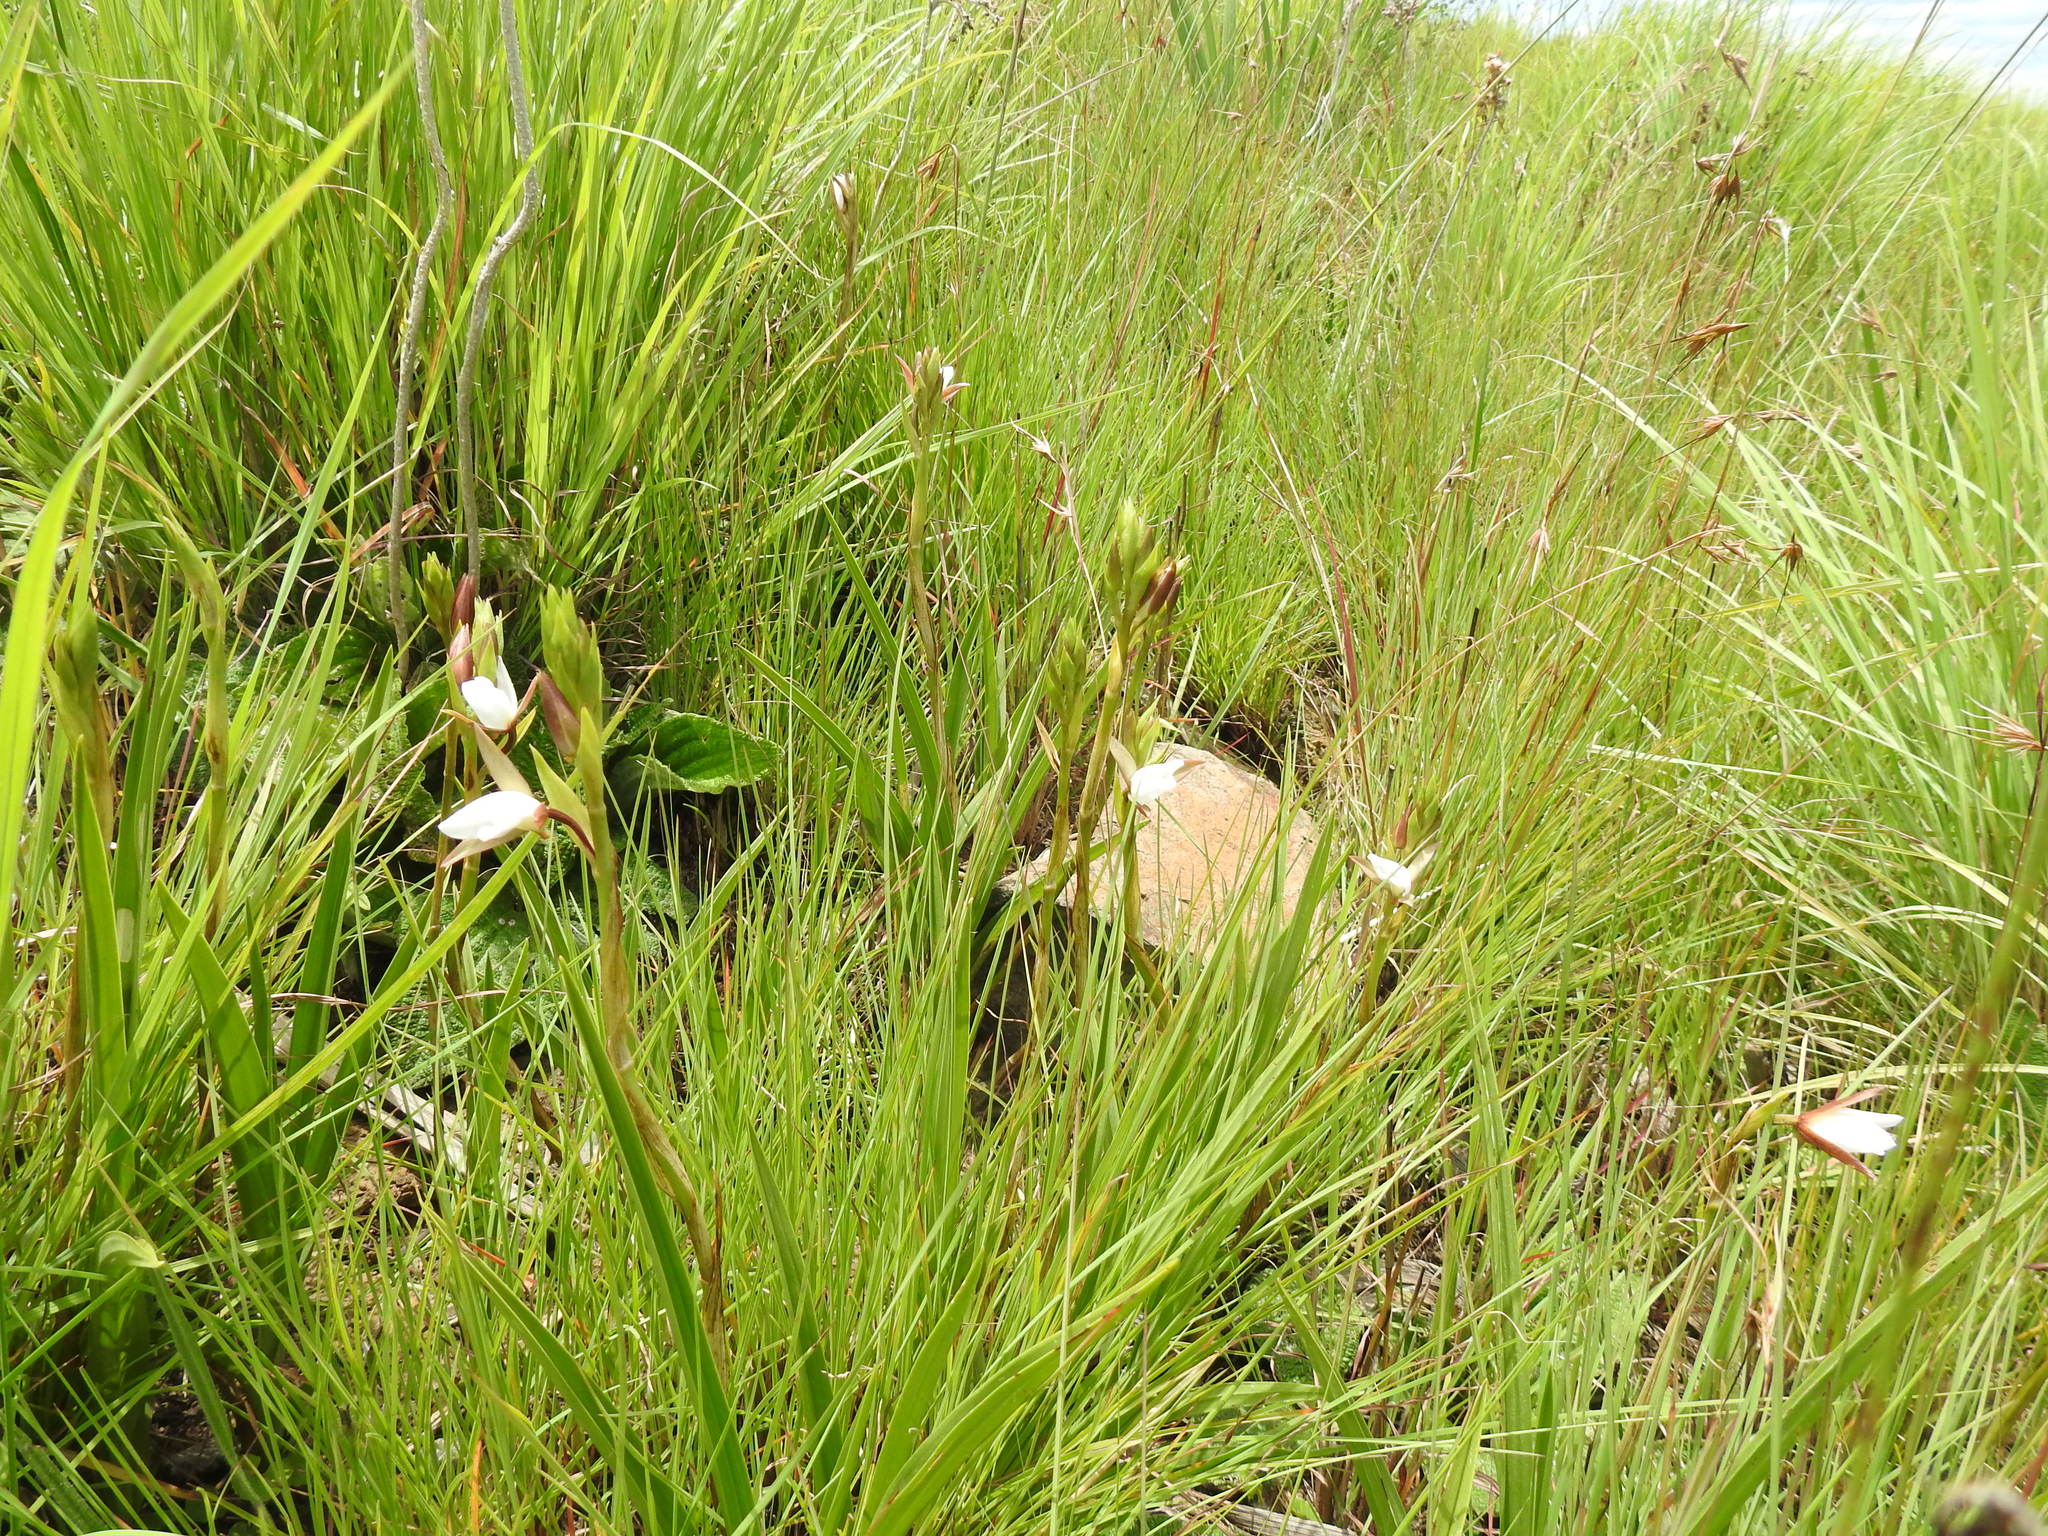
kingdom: Plantae
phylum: Tracheophyta
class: Liliopsida
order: Asparagales
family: Orchidaceae
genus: Eulophia
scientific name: Eulophia ovalis
